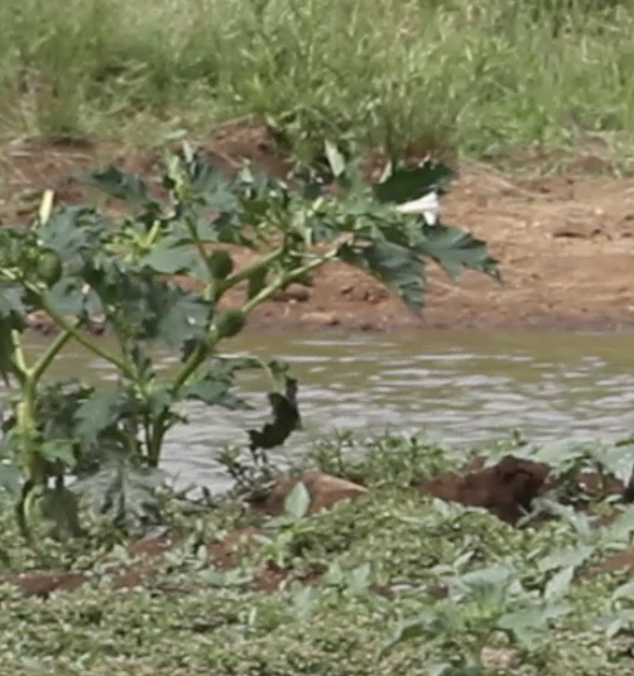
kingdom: Plantae
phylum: Tracheophyta
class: Magnoliopsida
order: Solanales
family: Solanaceae
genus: Datura
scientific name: Datura stramonium
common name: Thorn-apple
